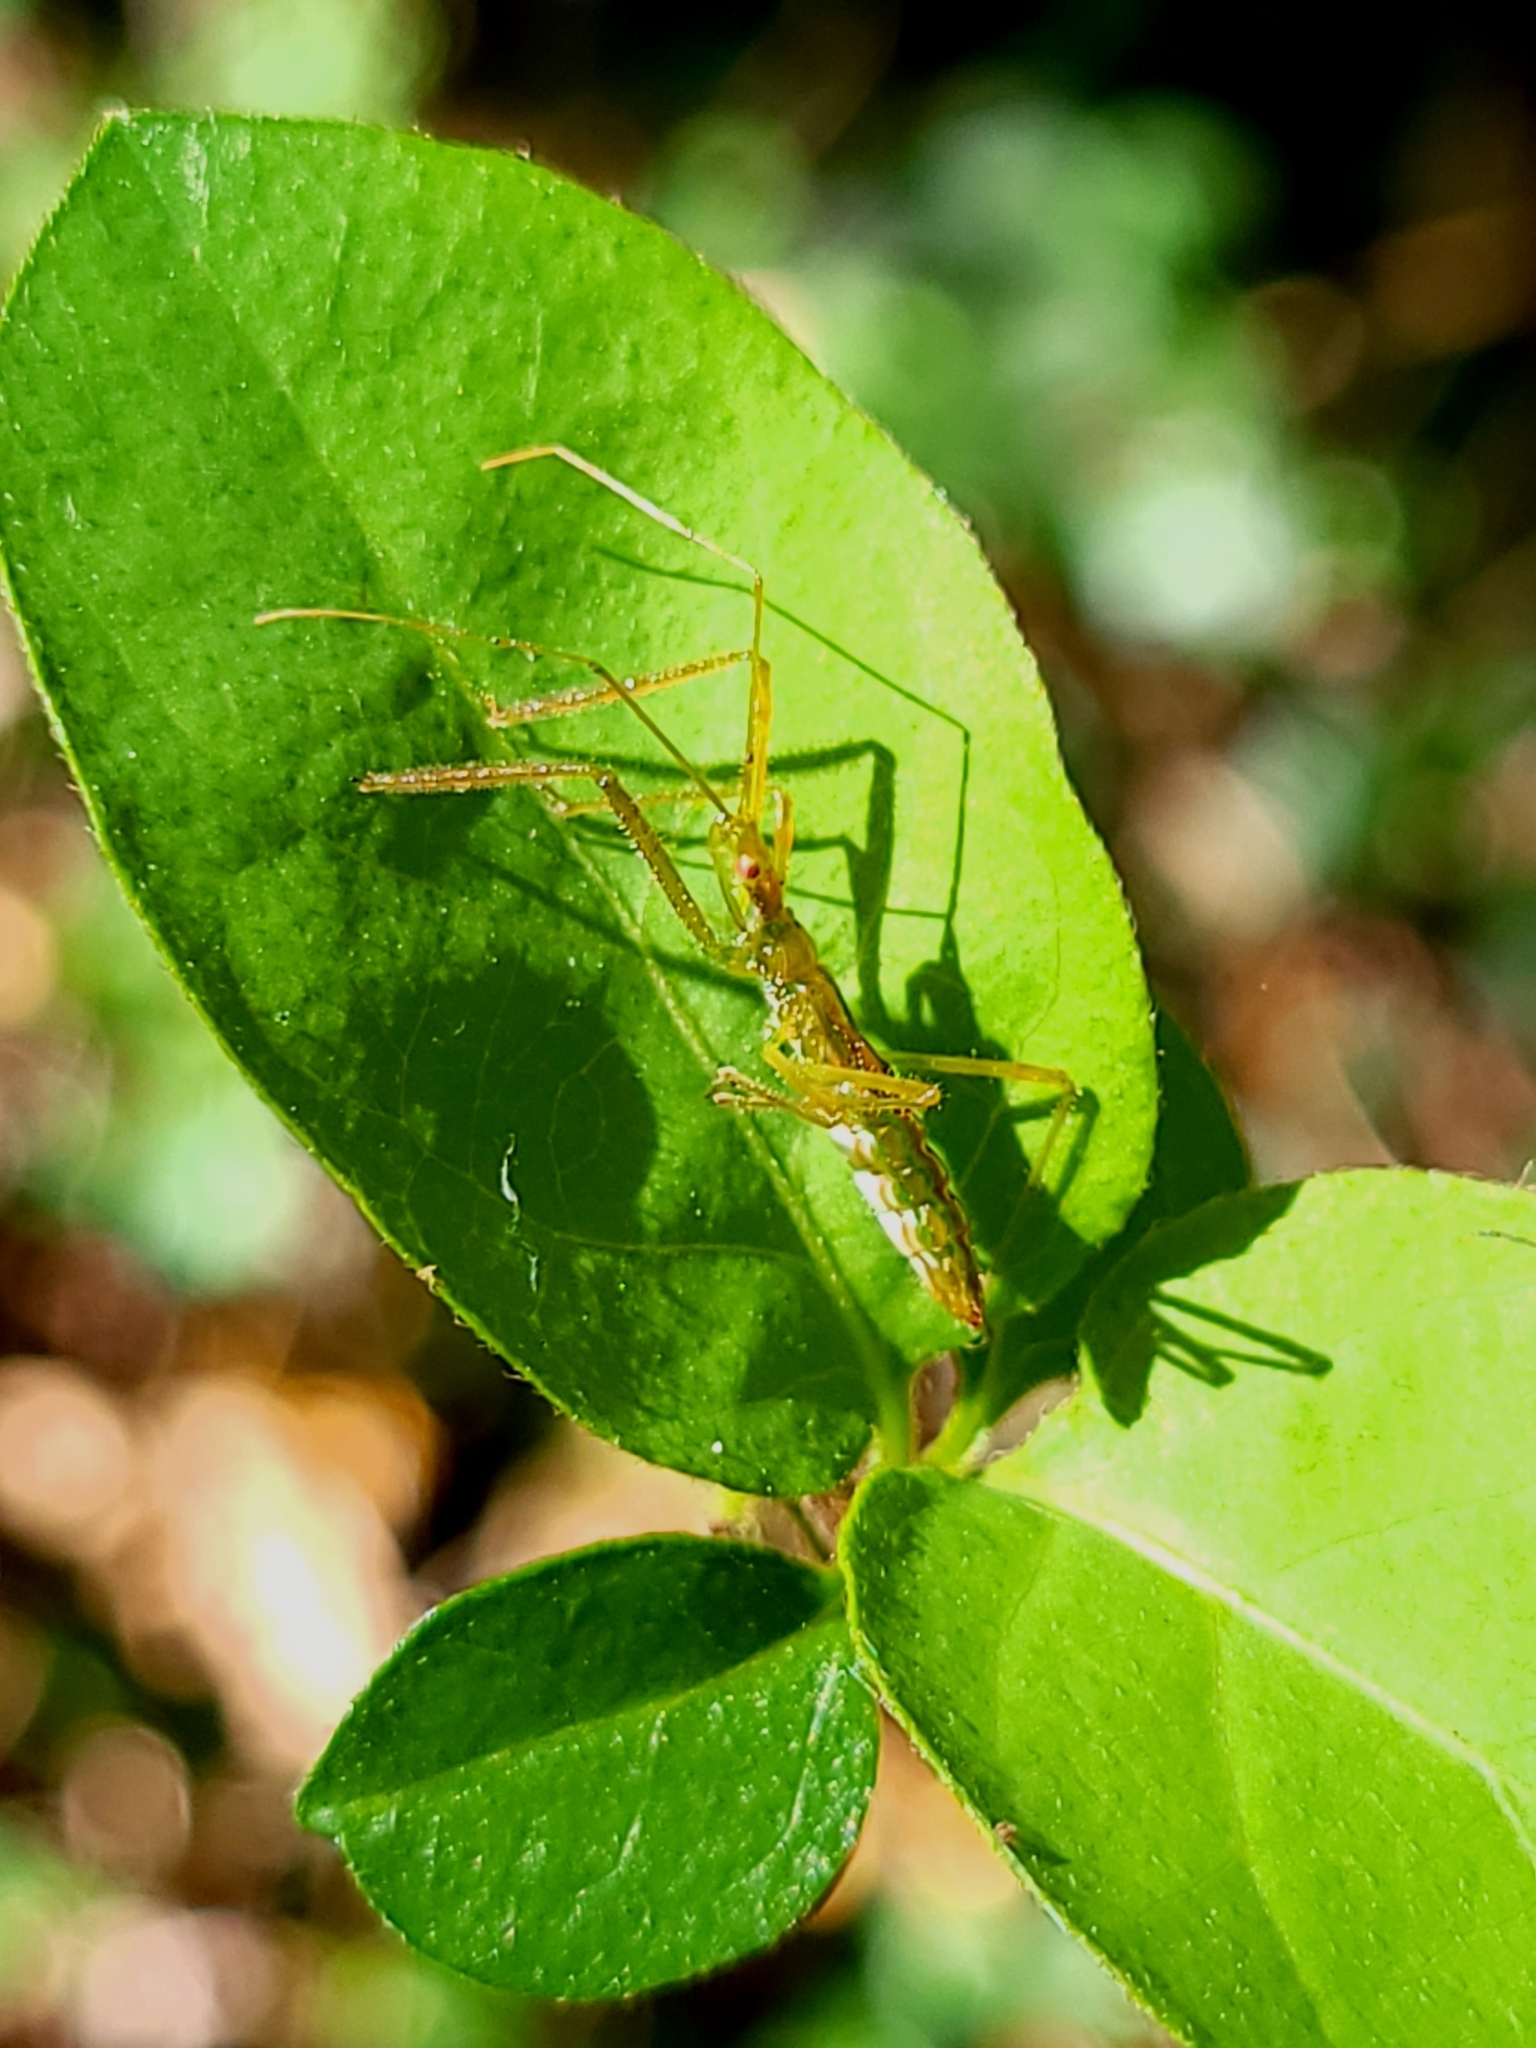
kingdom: Animalia
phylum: Arthropoda
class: Insecta
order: Hemiptera
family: Reduviidae
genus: Zelus
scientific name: Zelus luridus
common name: Pale green assassin bug
